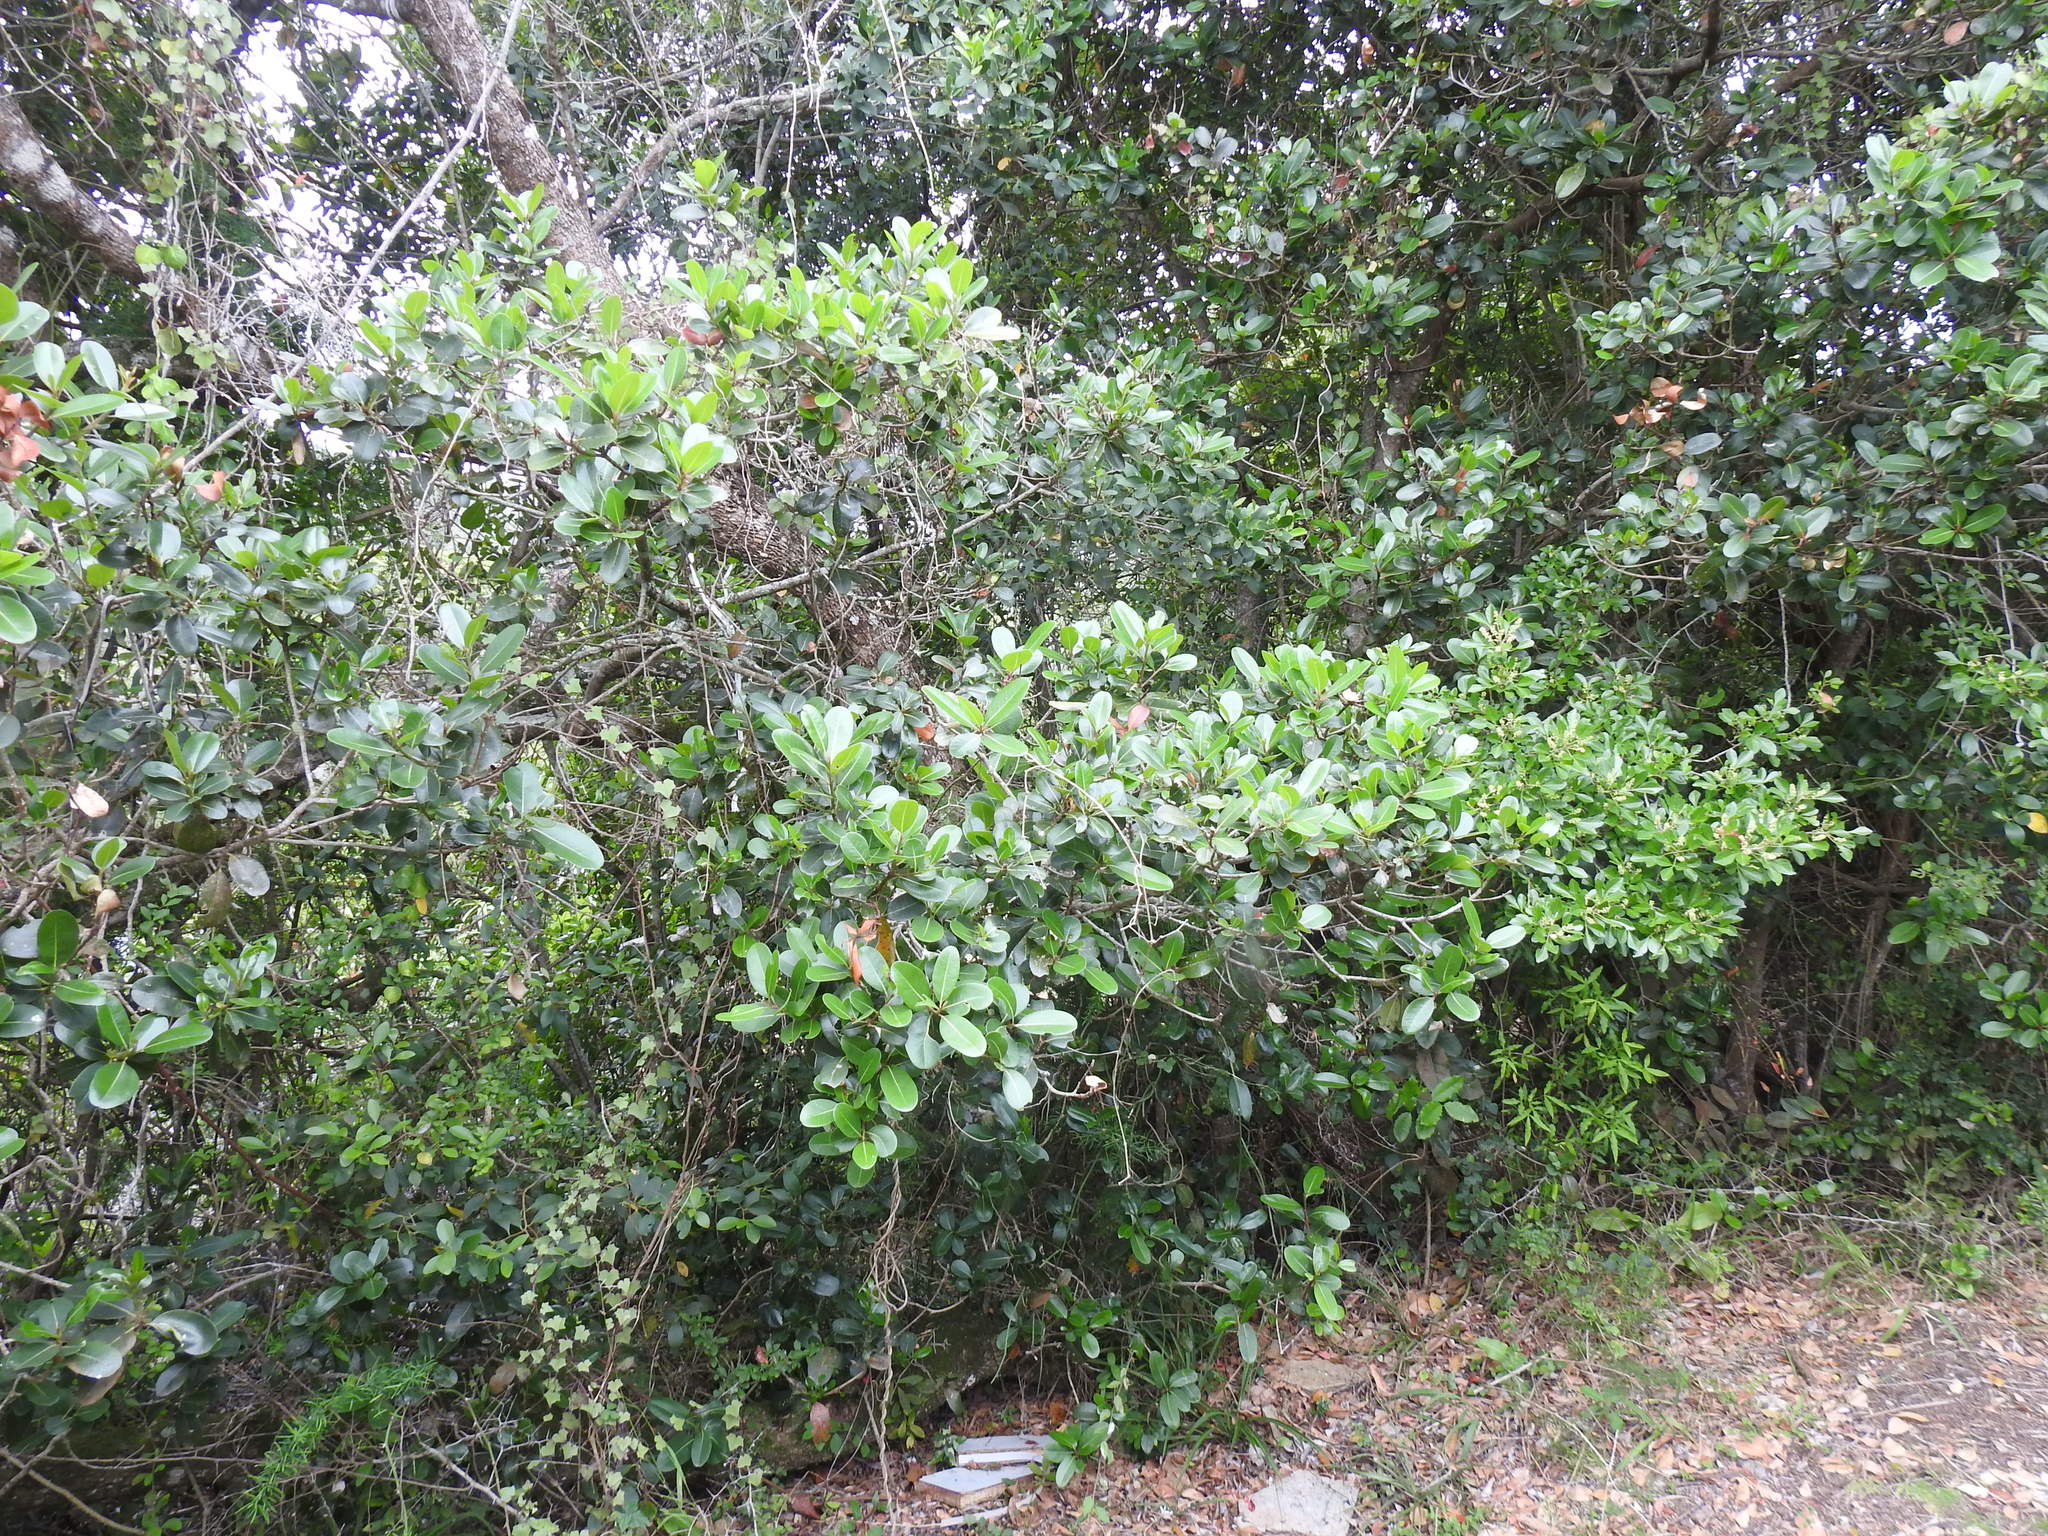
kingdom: Plantae
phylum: Tracheophyta
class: Magnoliopsida
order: Ericales
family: Sapotaceae
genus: Sideroxylon
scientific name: Sideroxylon inerme
